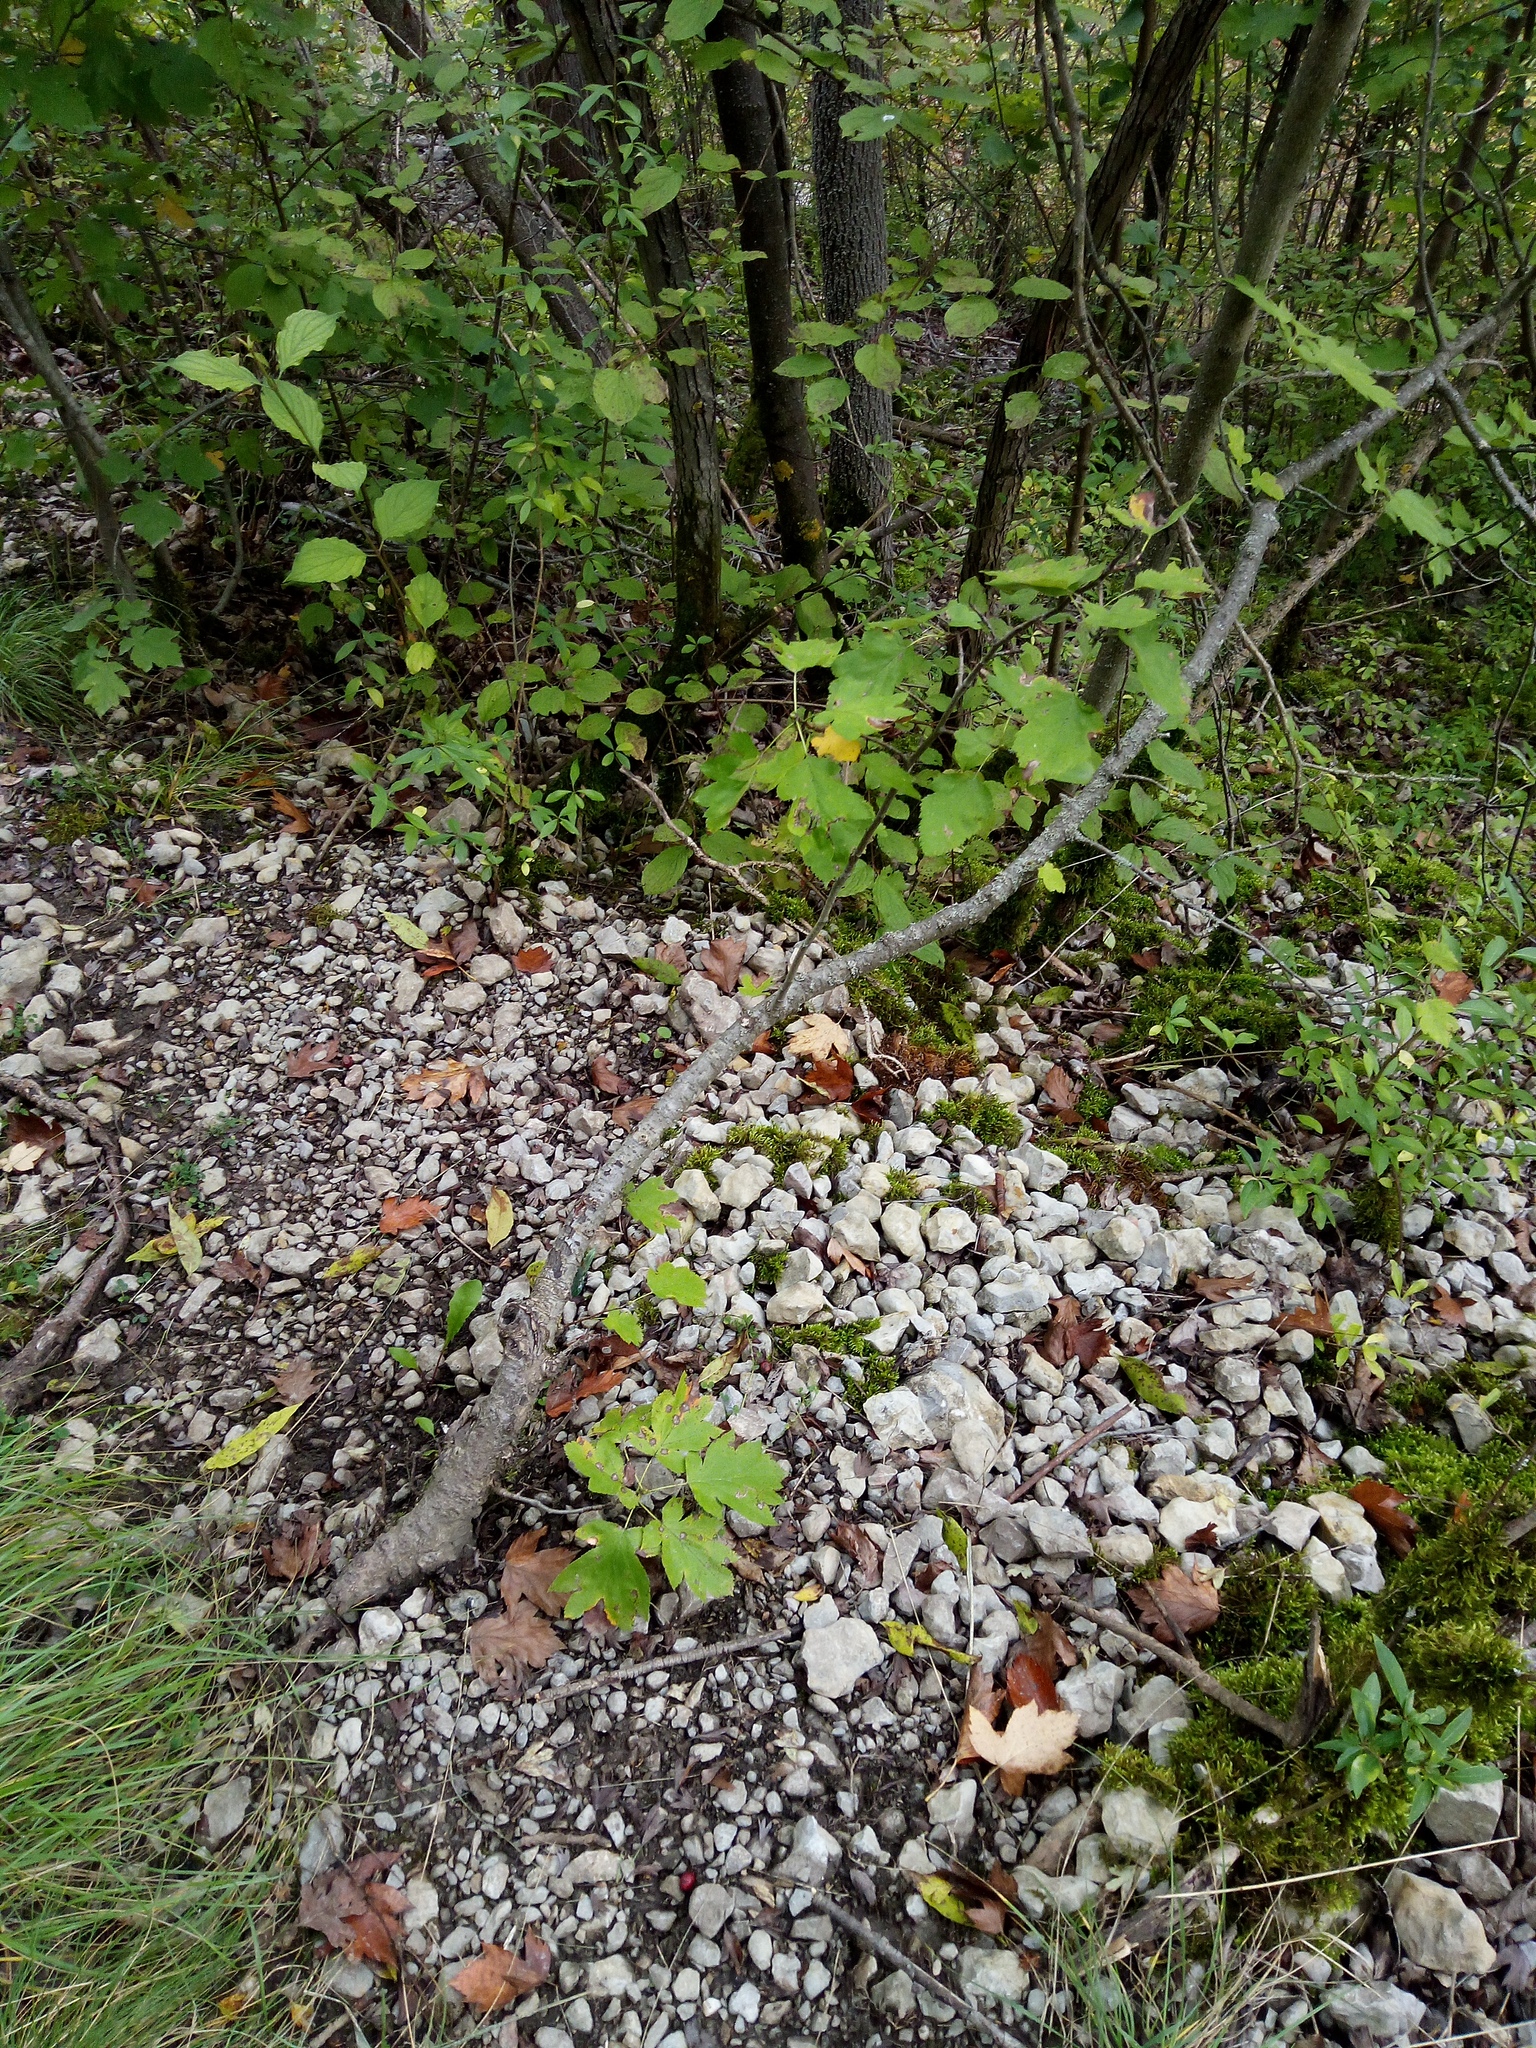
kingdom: Plantae
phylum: Tracheophyta
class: Magnoliopsida
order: Rosales
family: Rosaceae
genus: Torminalis
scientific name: Torminalis glaberrima
